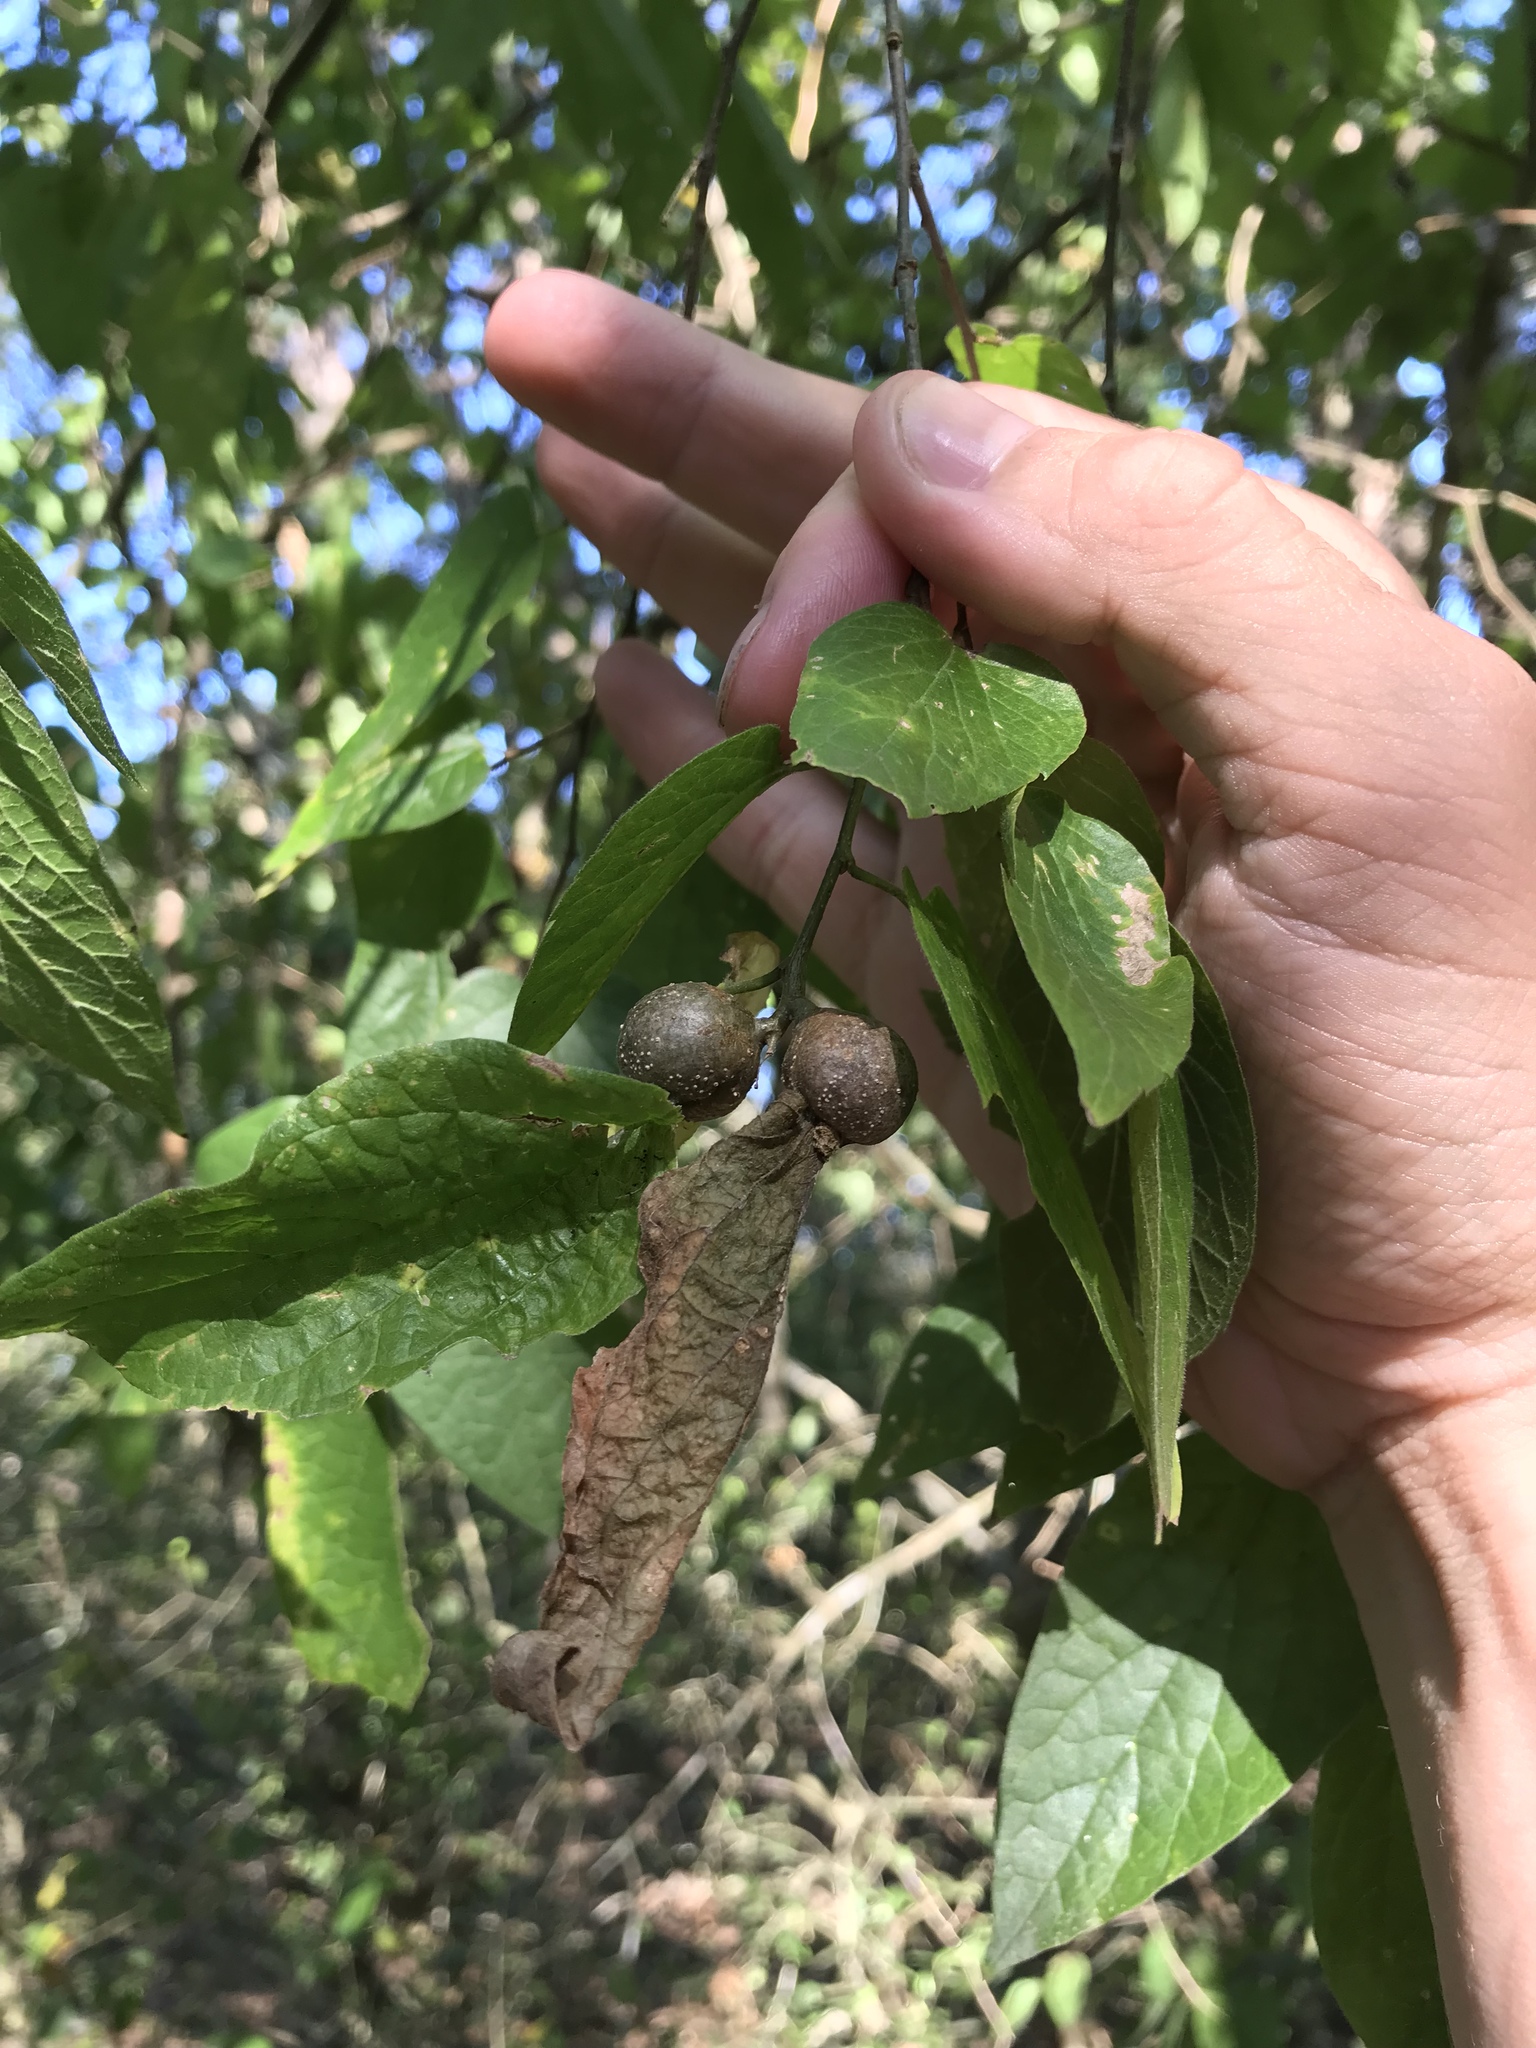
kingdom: Animalia
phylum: Arthropoda
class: Insecta
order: Hemiptera
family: Aphalaridae
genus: Pachypsylla
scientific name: Pachypsylla venusta
